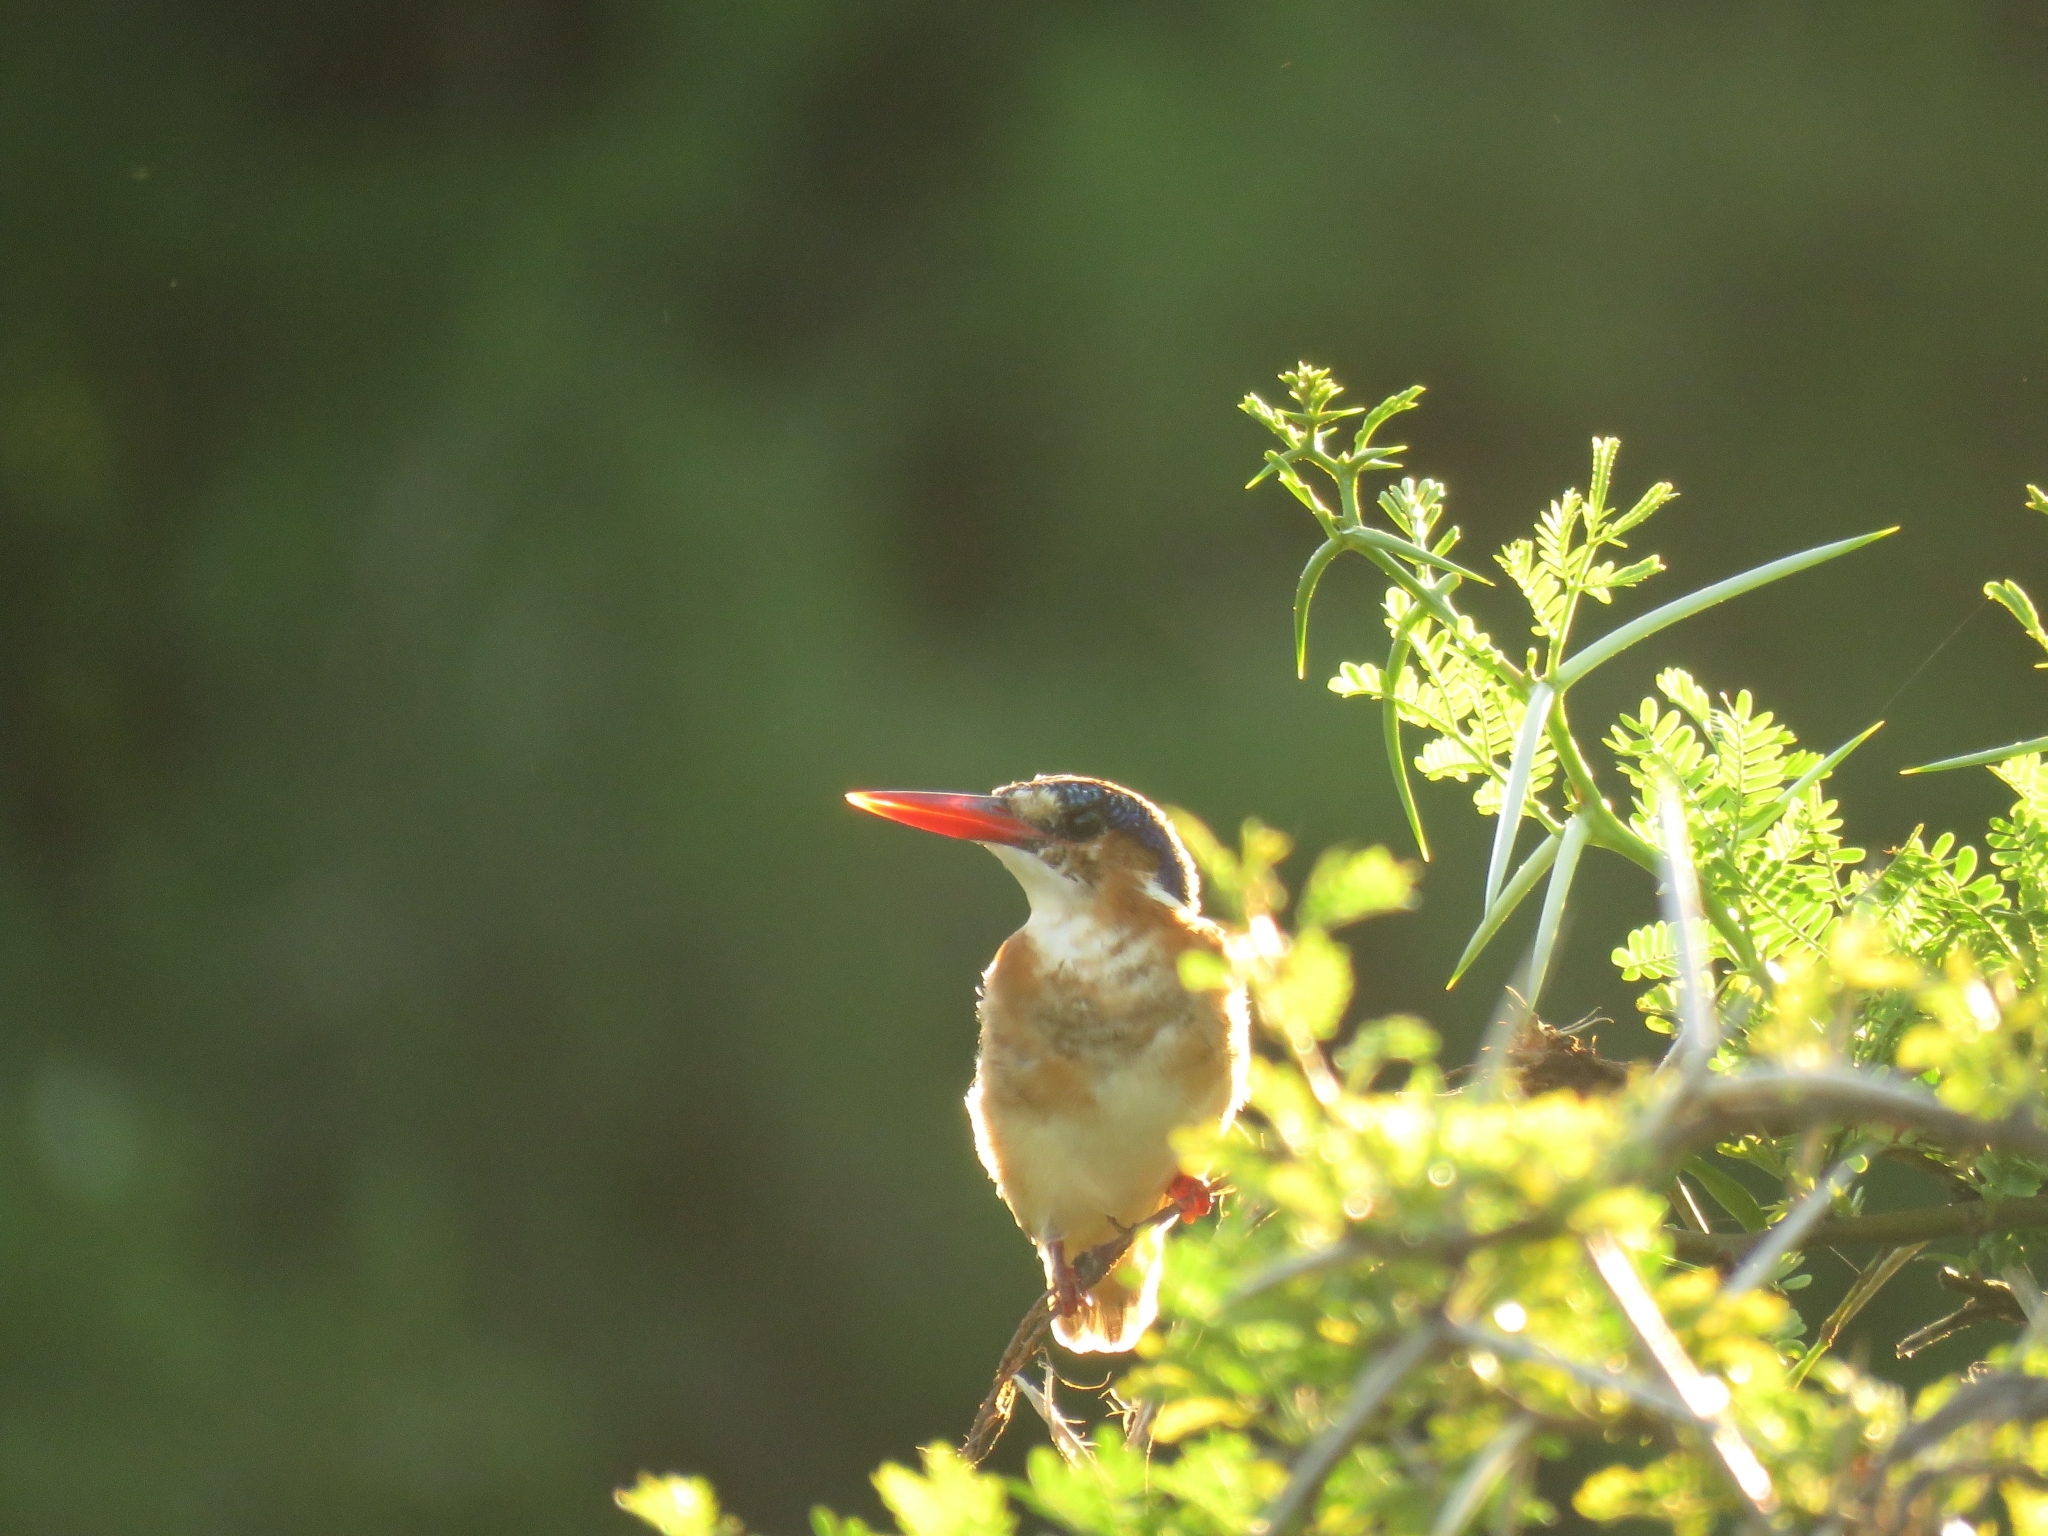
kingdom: Animalia
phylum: Chordata
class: Aves
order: Coraciiformes
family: Alcedinidae
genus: Corythornis
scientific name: Corythornis cristatus
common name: Malachite kingfisher
